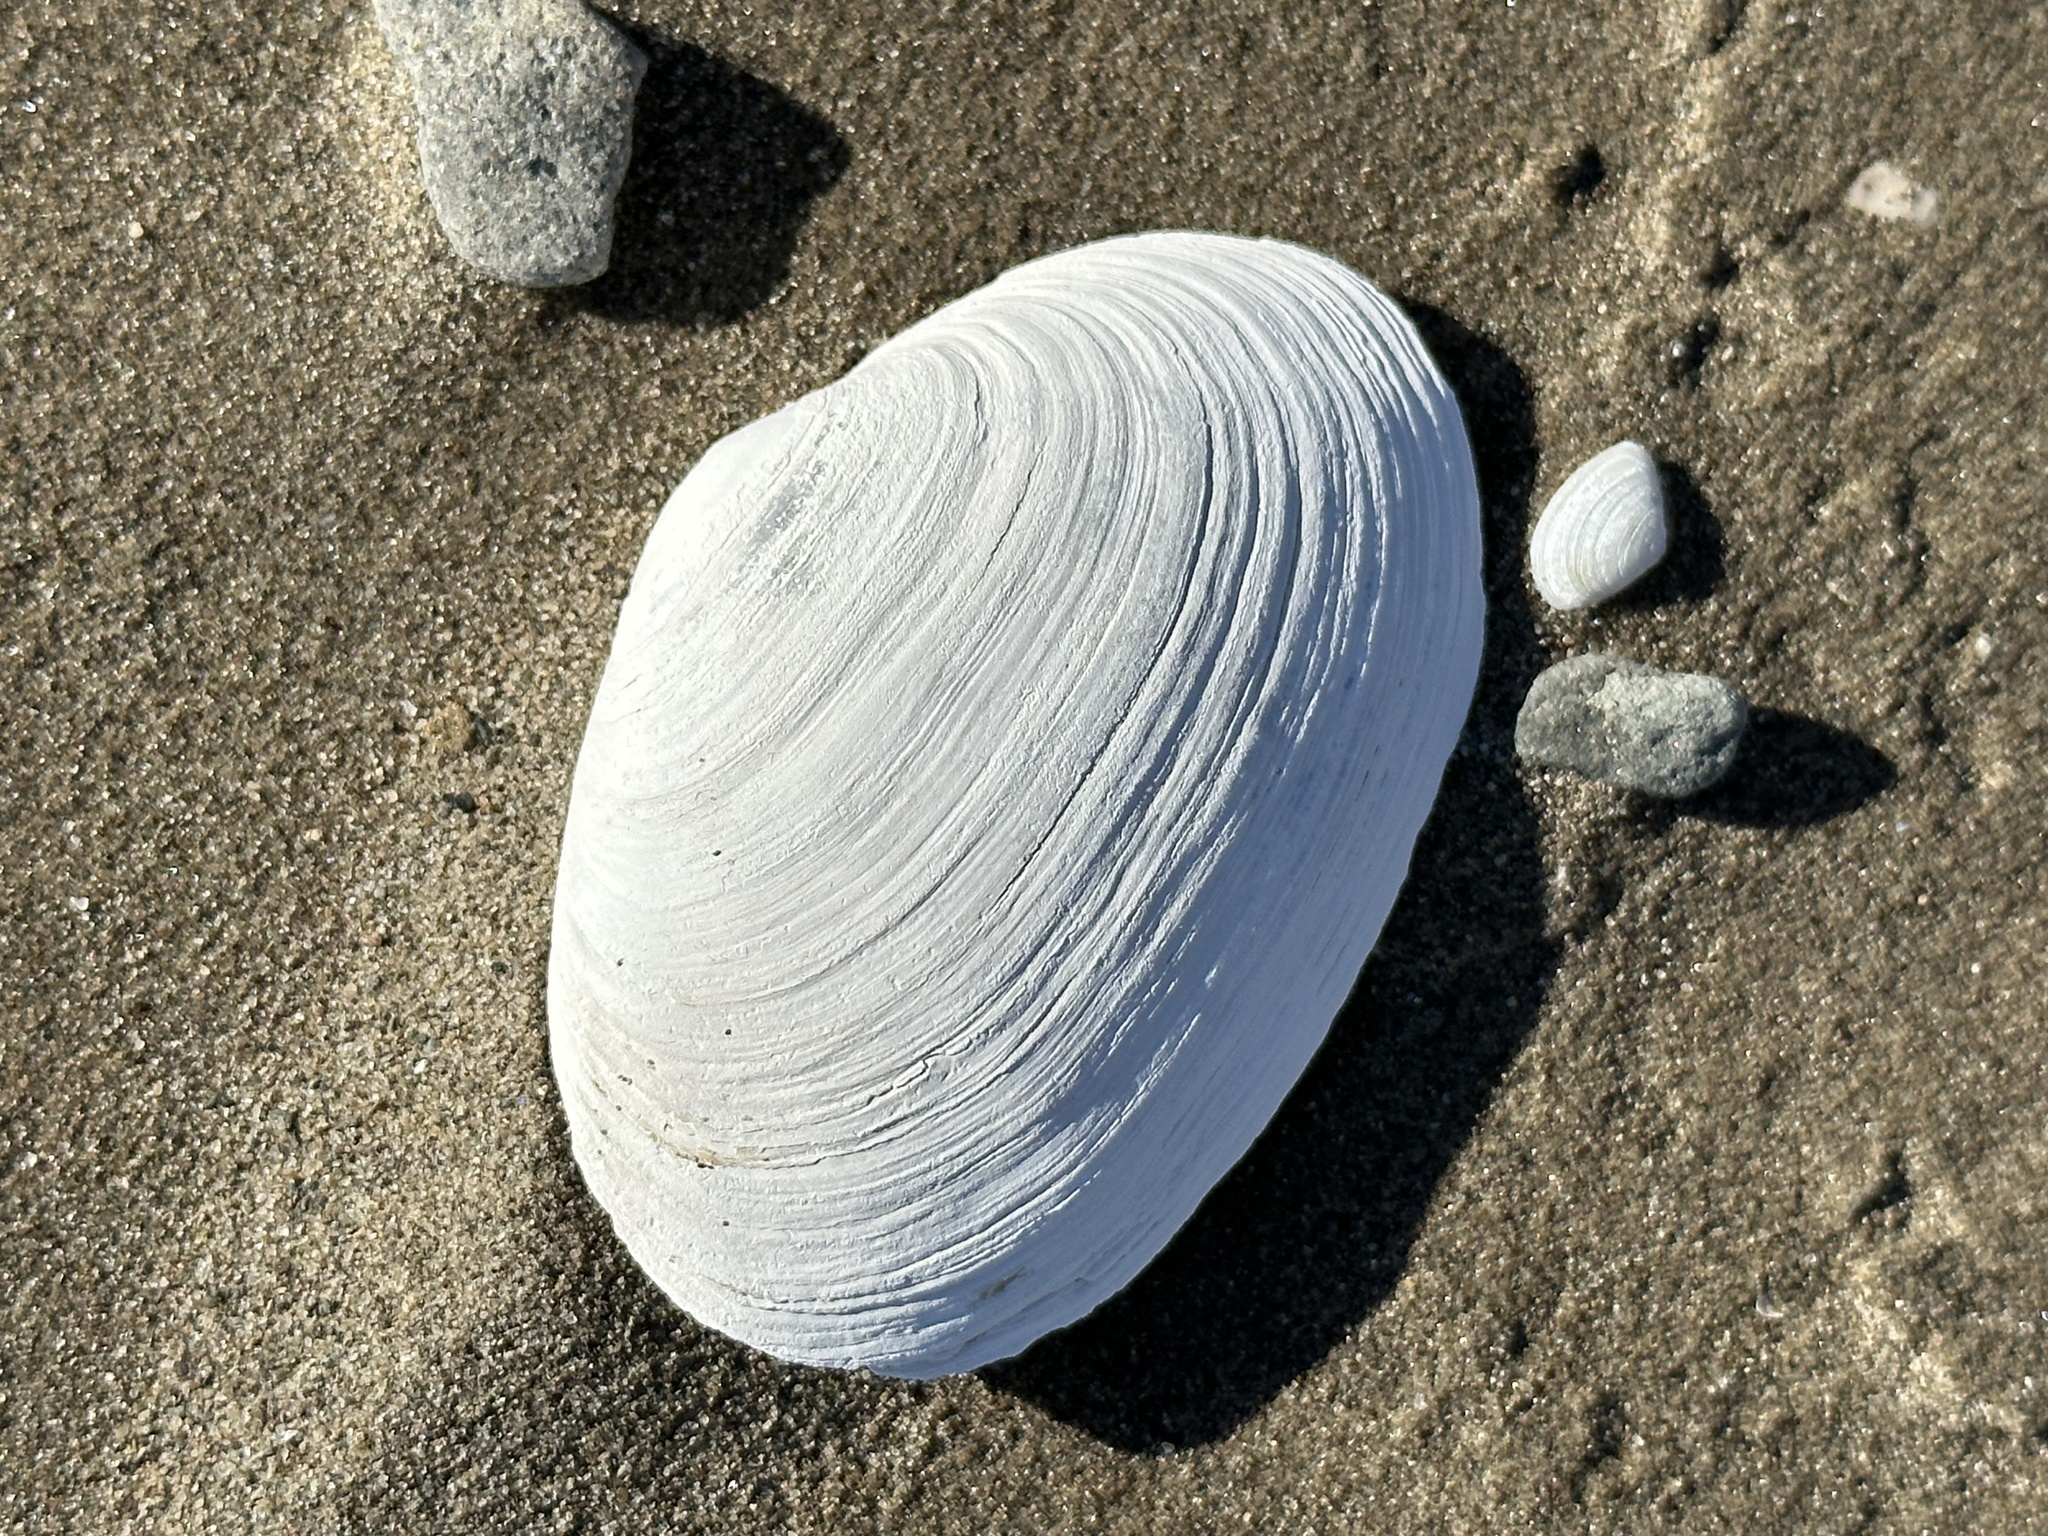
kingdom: Animalia
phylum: Mollusca
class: Bivalvia
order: Myida
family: Myidae
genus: Mya
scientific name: Mya arenaria
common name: Soft-shelled clam
